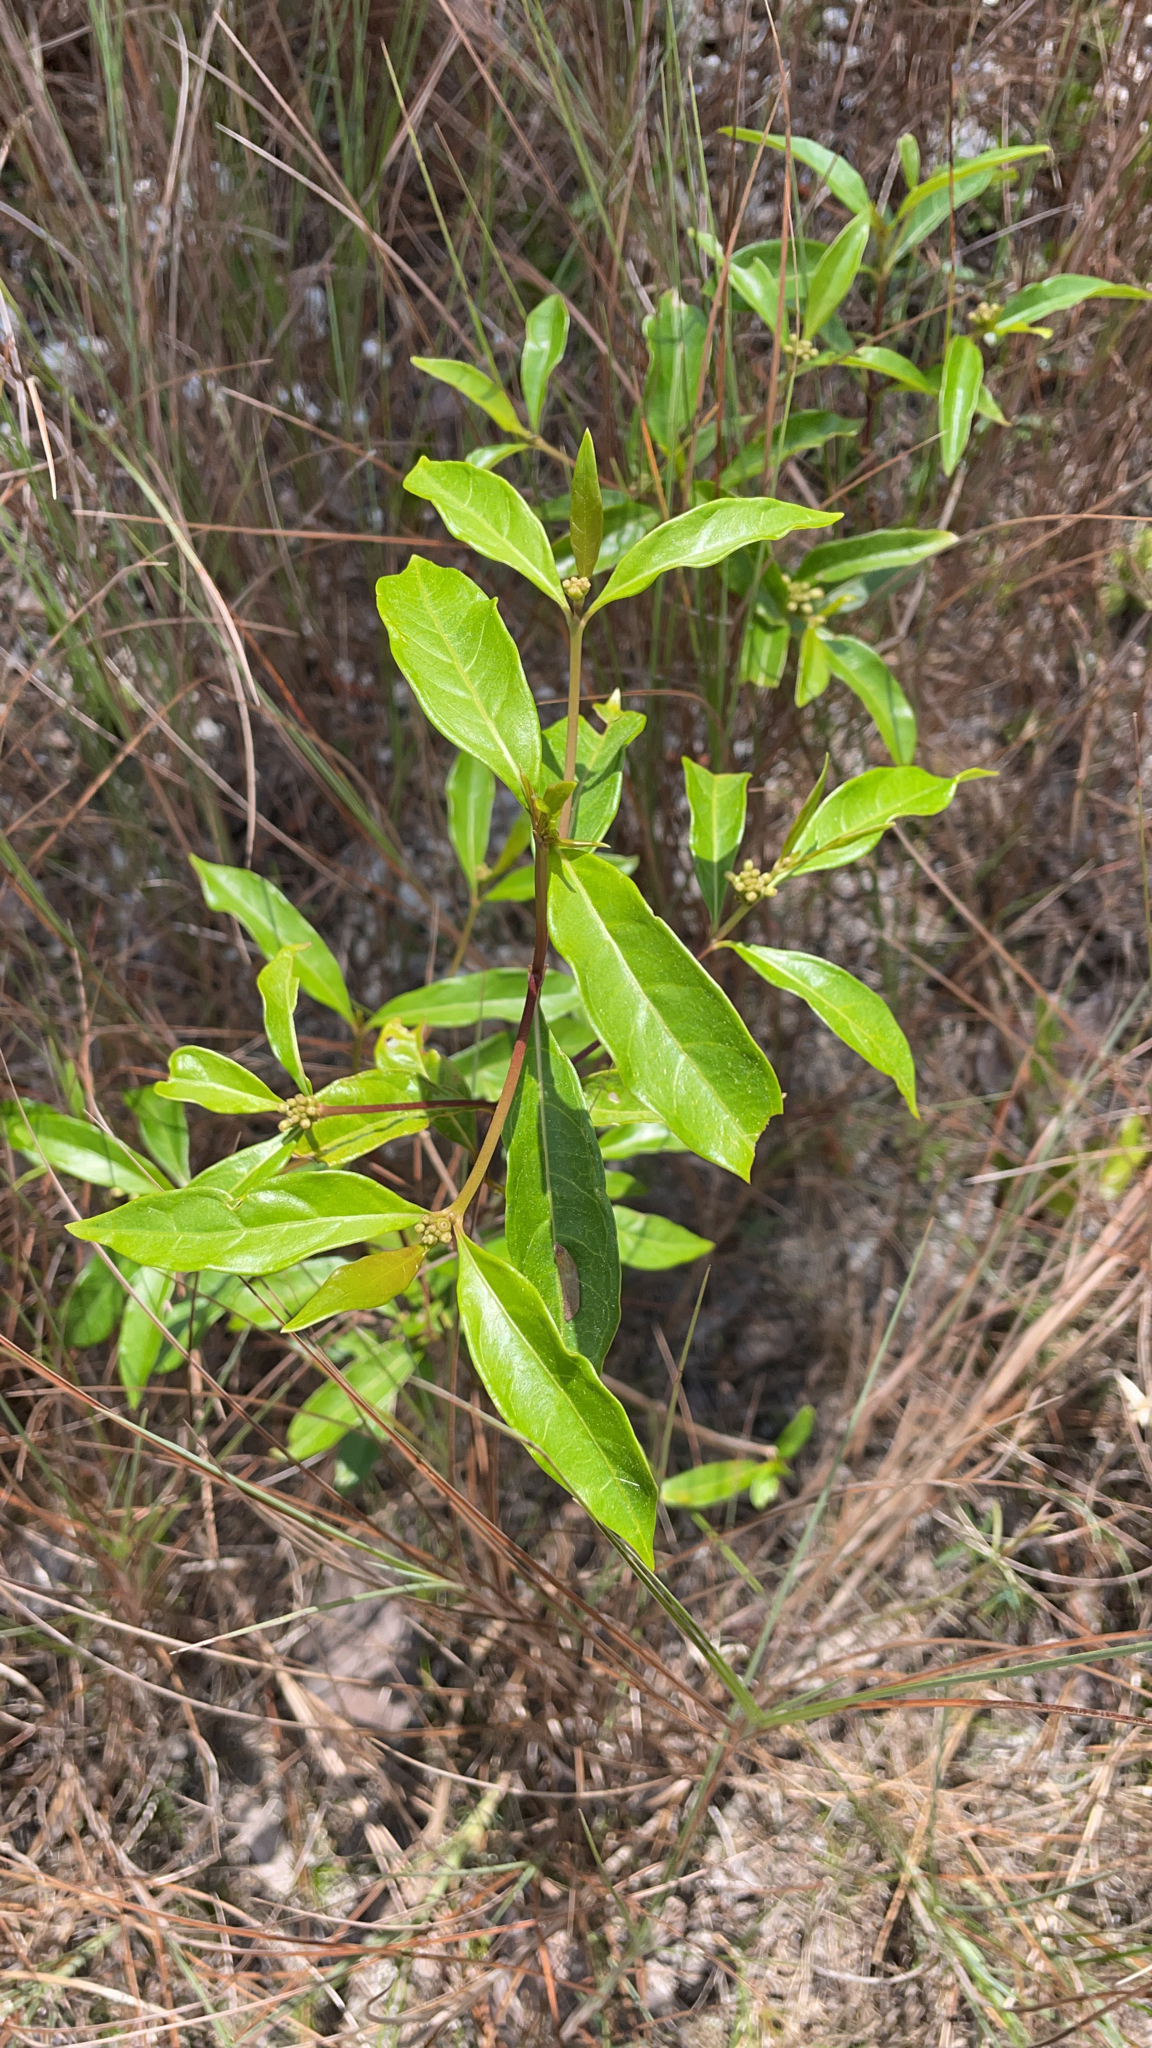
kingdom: Plantae
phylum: Tracheophyta
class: Magnoliopsida
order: Gentianales
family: Rubiaceae
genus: Morinda
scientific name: Morinda royoc
